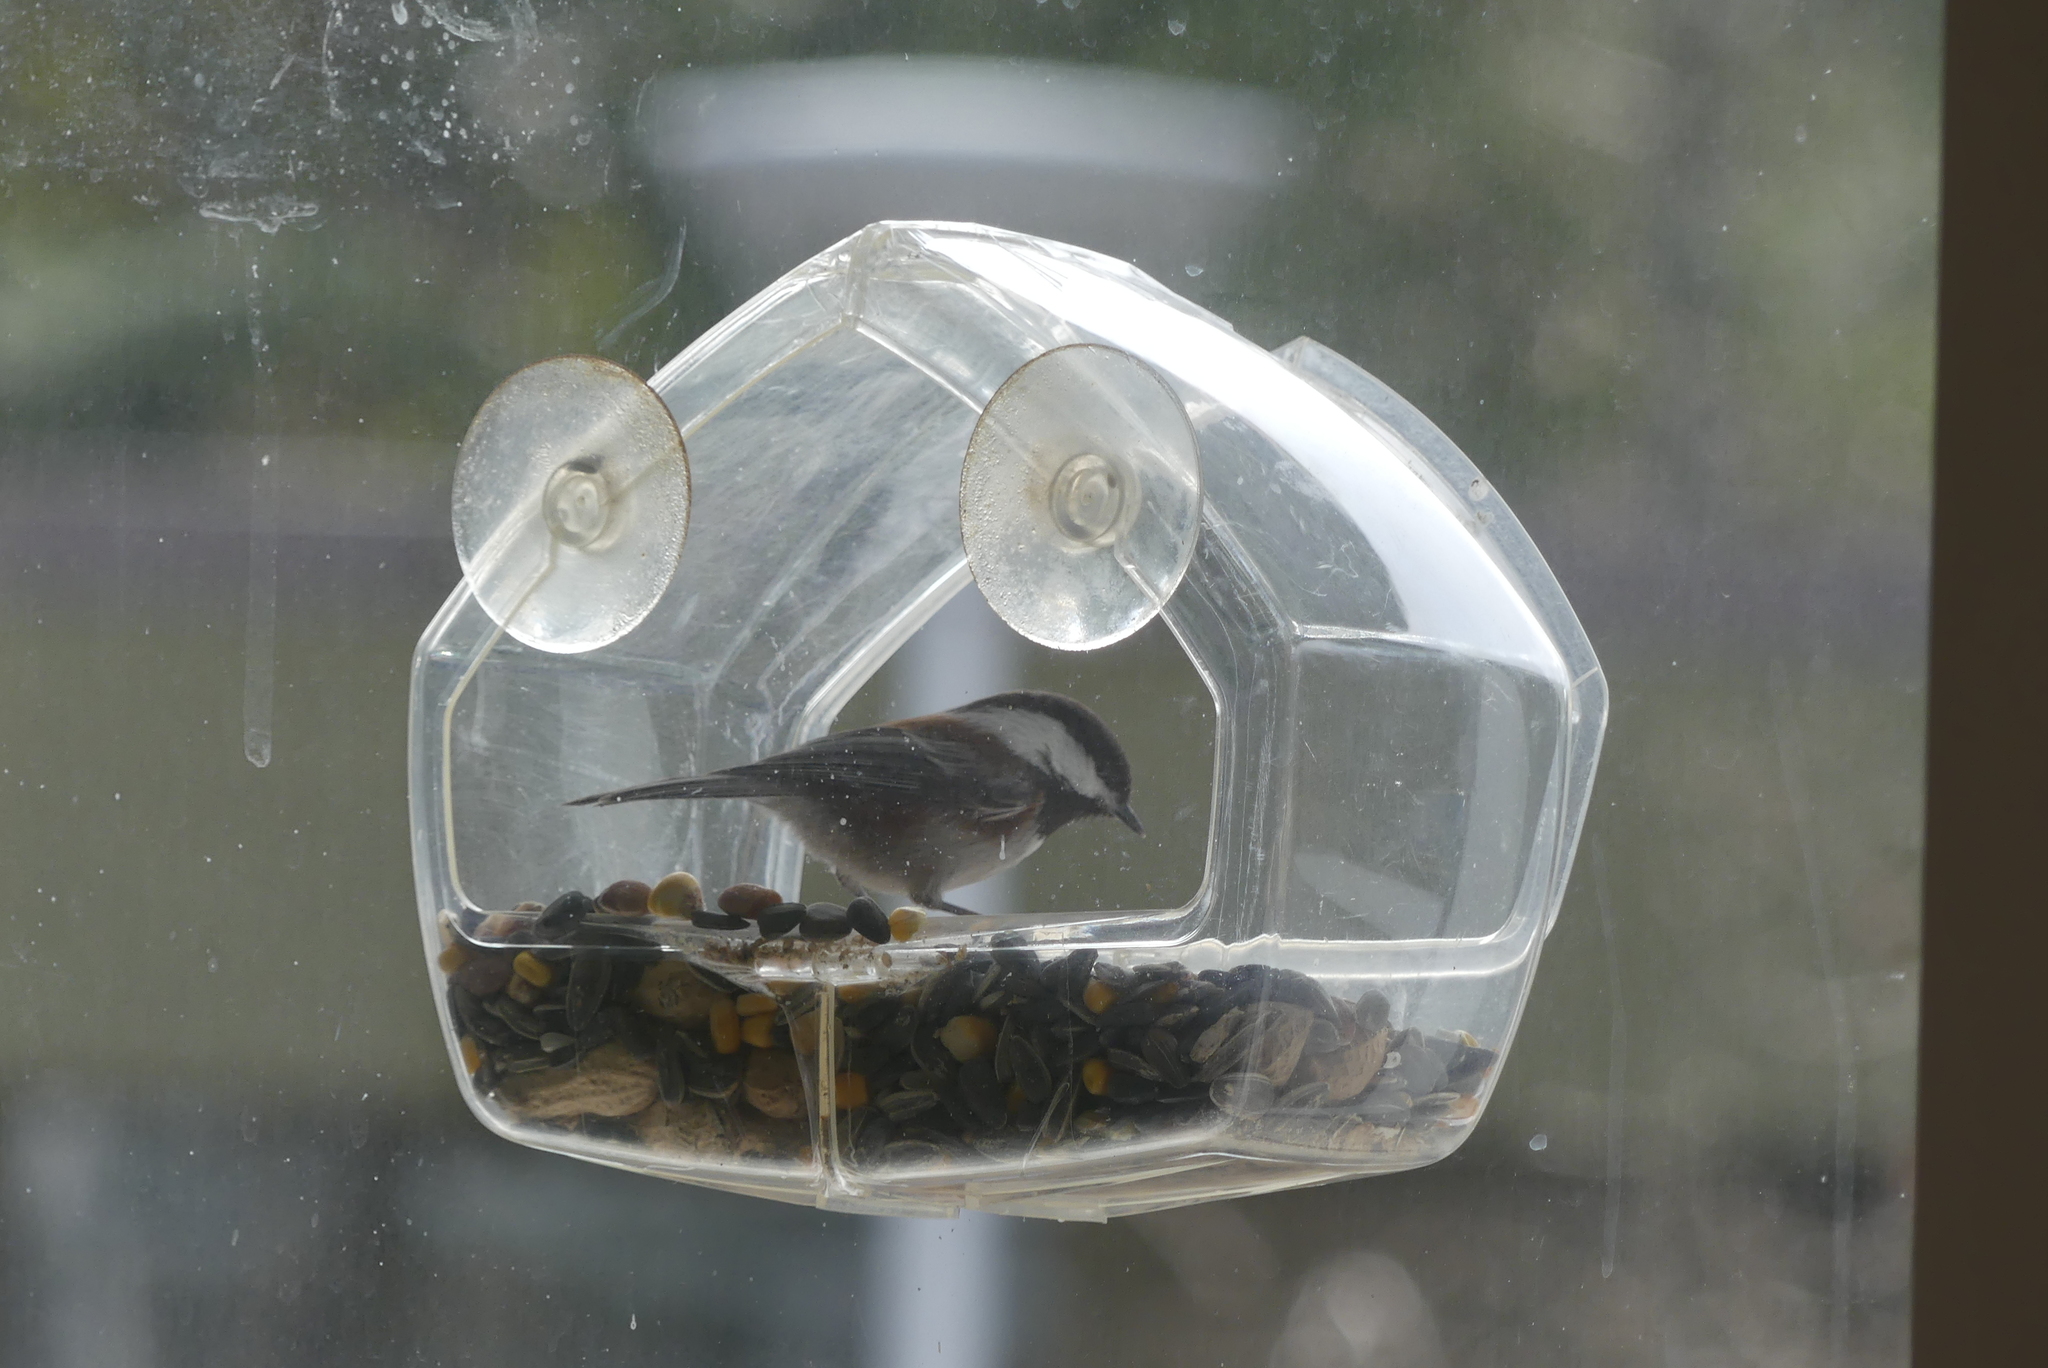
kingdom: Animalia
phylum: Chordata
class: Aves
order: Passeriformes
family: Paridae
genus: Poecile
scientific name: Poecile rufescens
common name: Chestnut-backed chickadee
